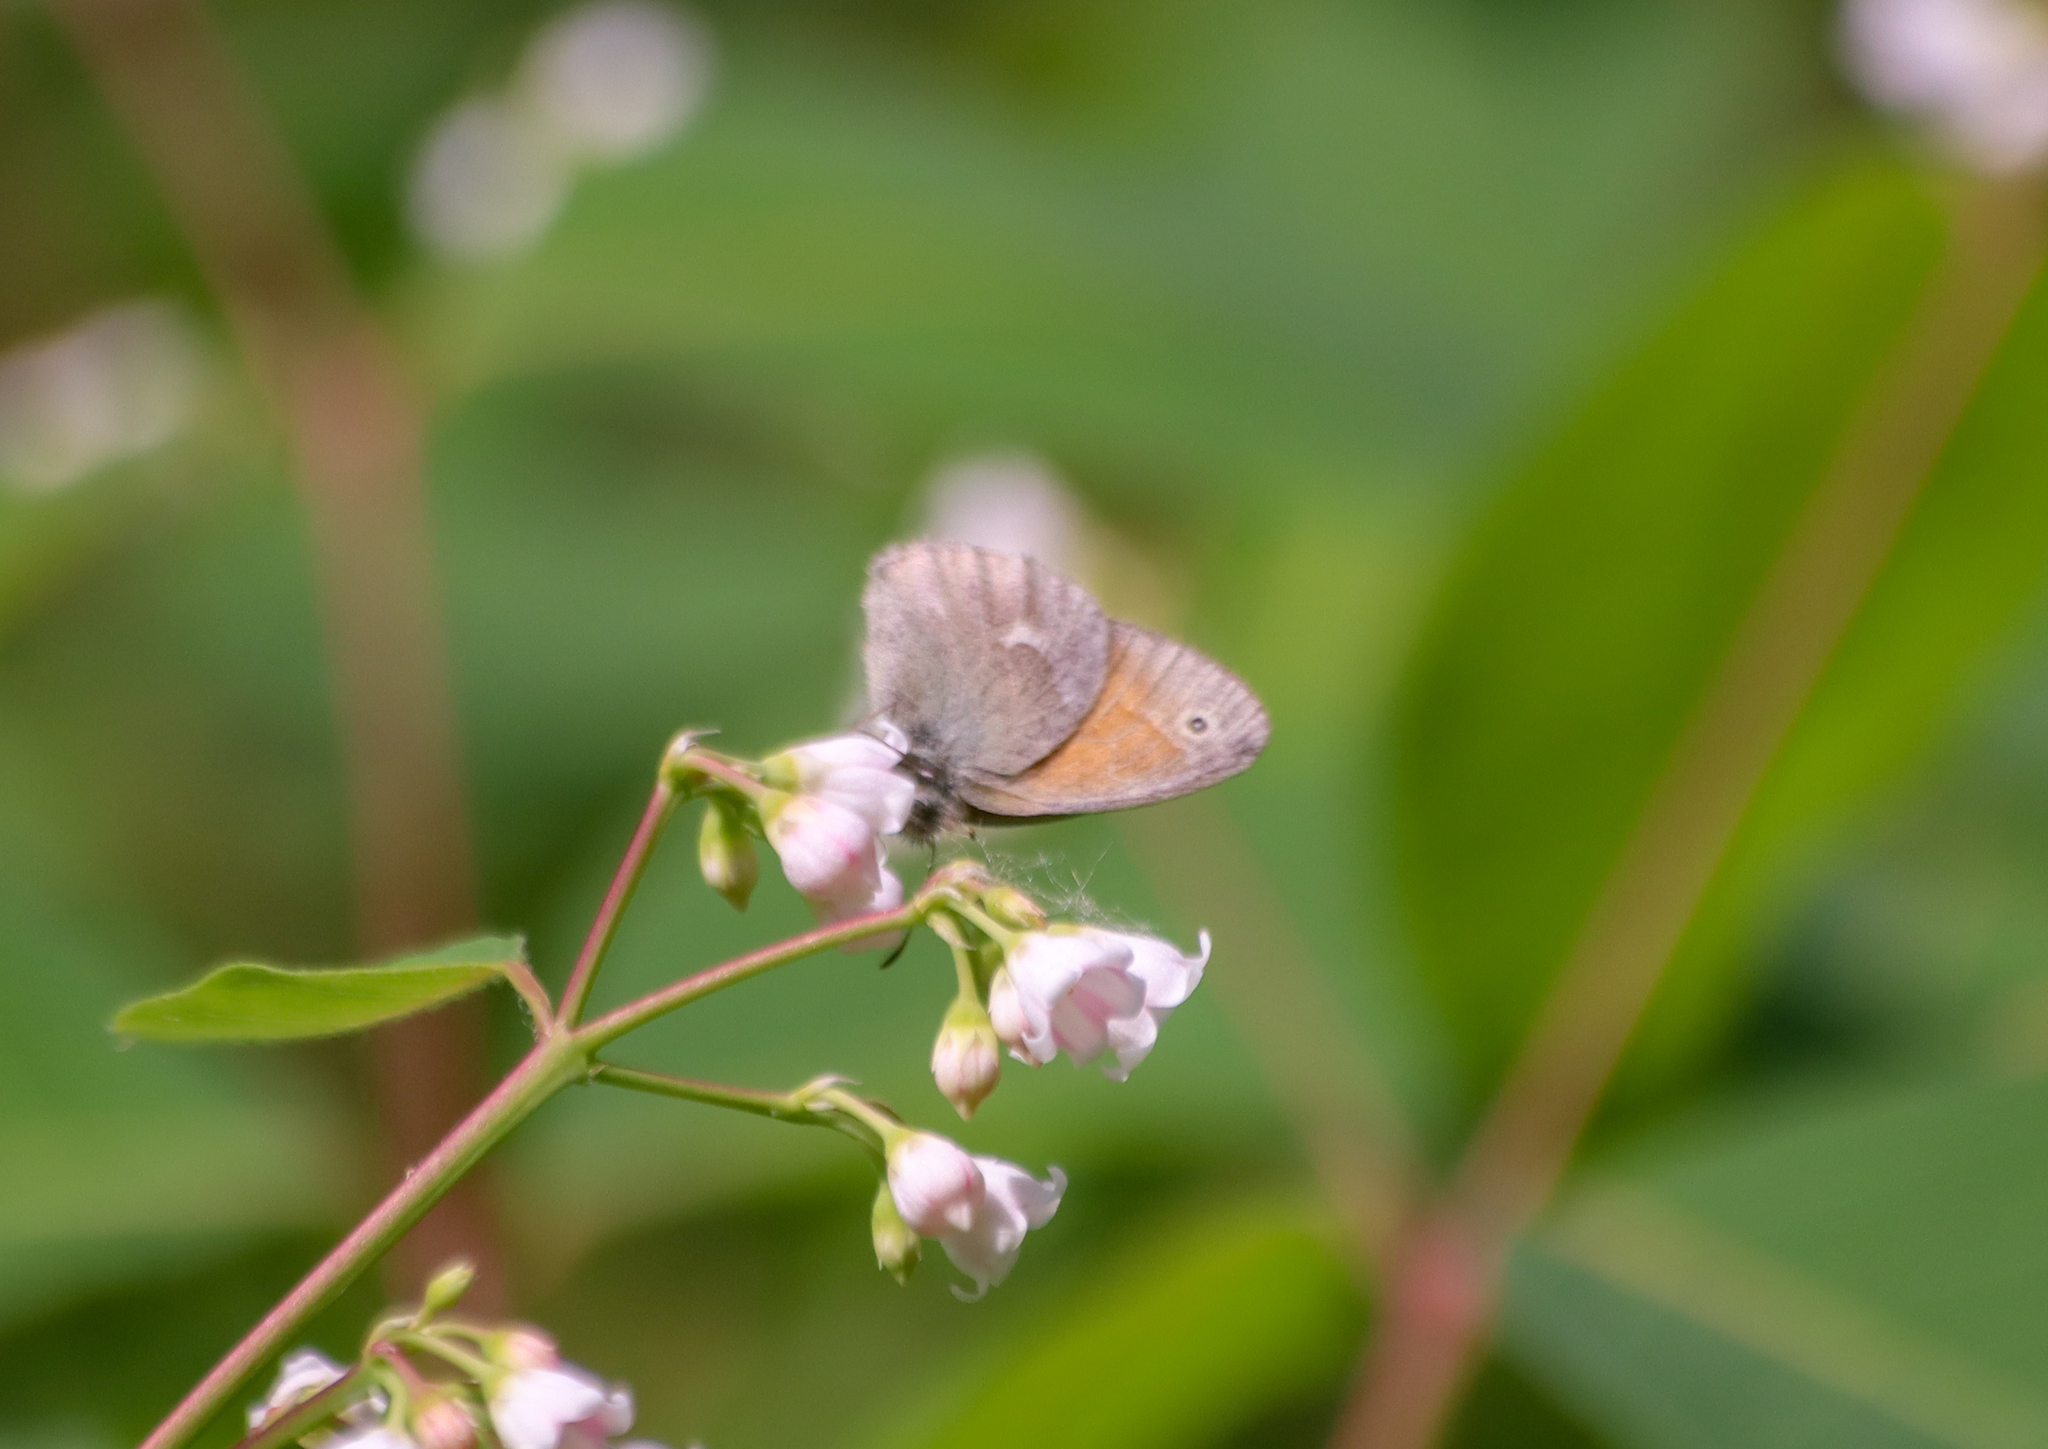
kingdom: Animalia
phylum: Arthropoda
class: Insecta
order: Lepidoptera
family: Nymphalidae
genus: Coenonympha
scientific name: Coenonympha california
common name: Common ringlet
